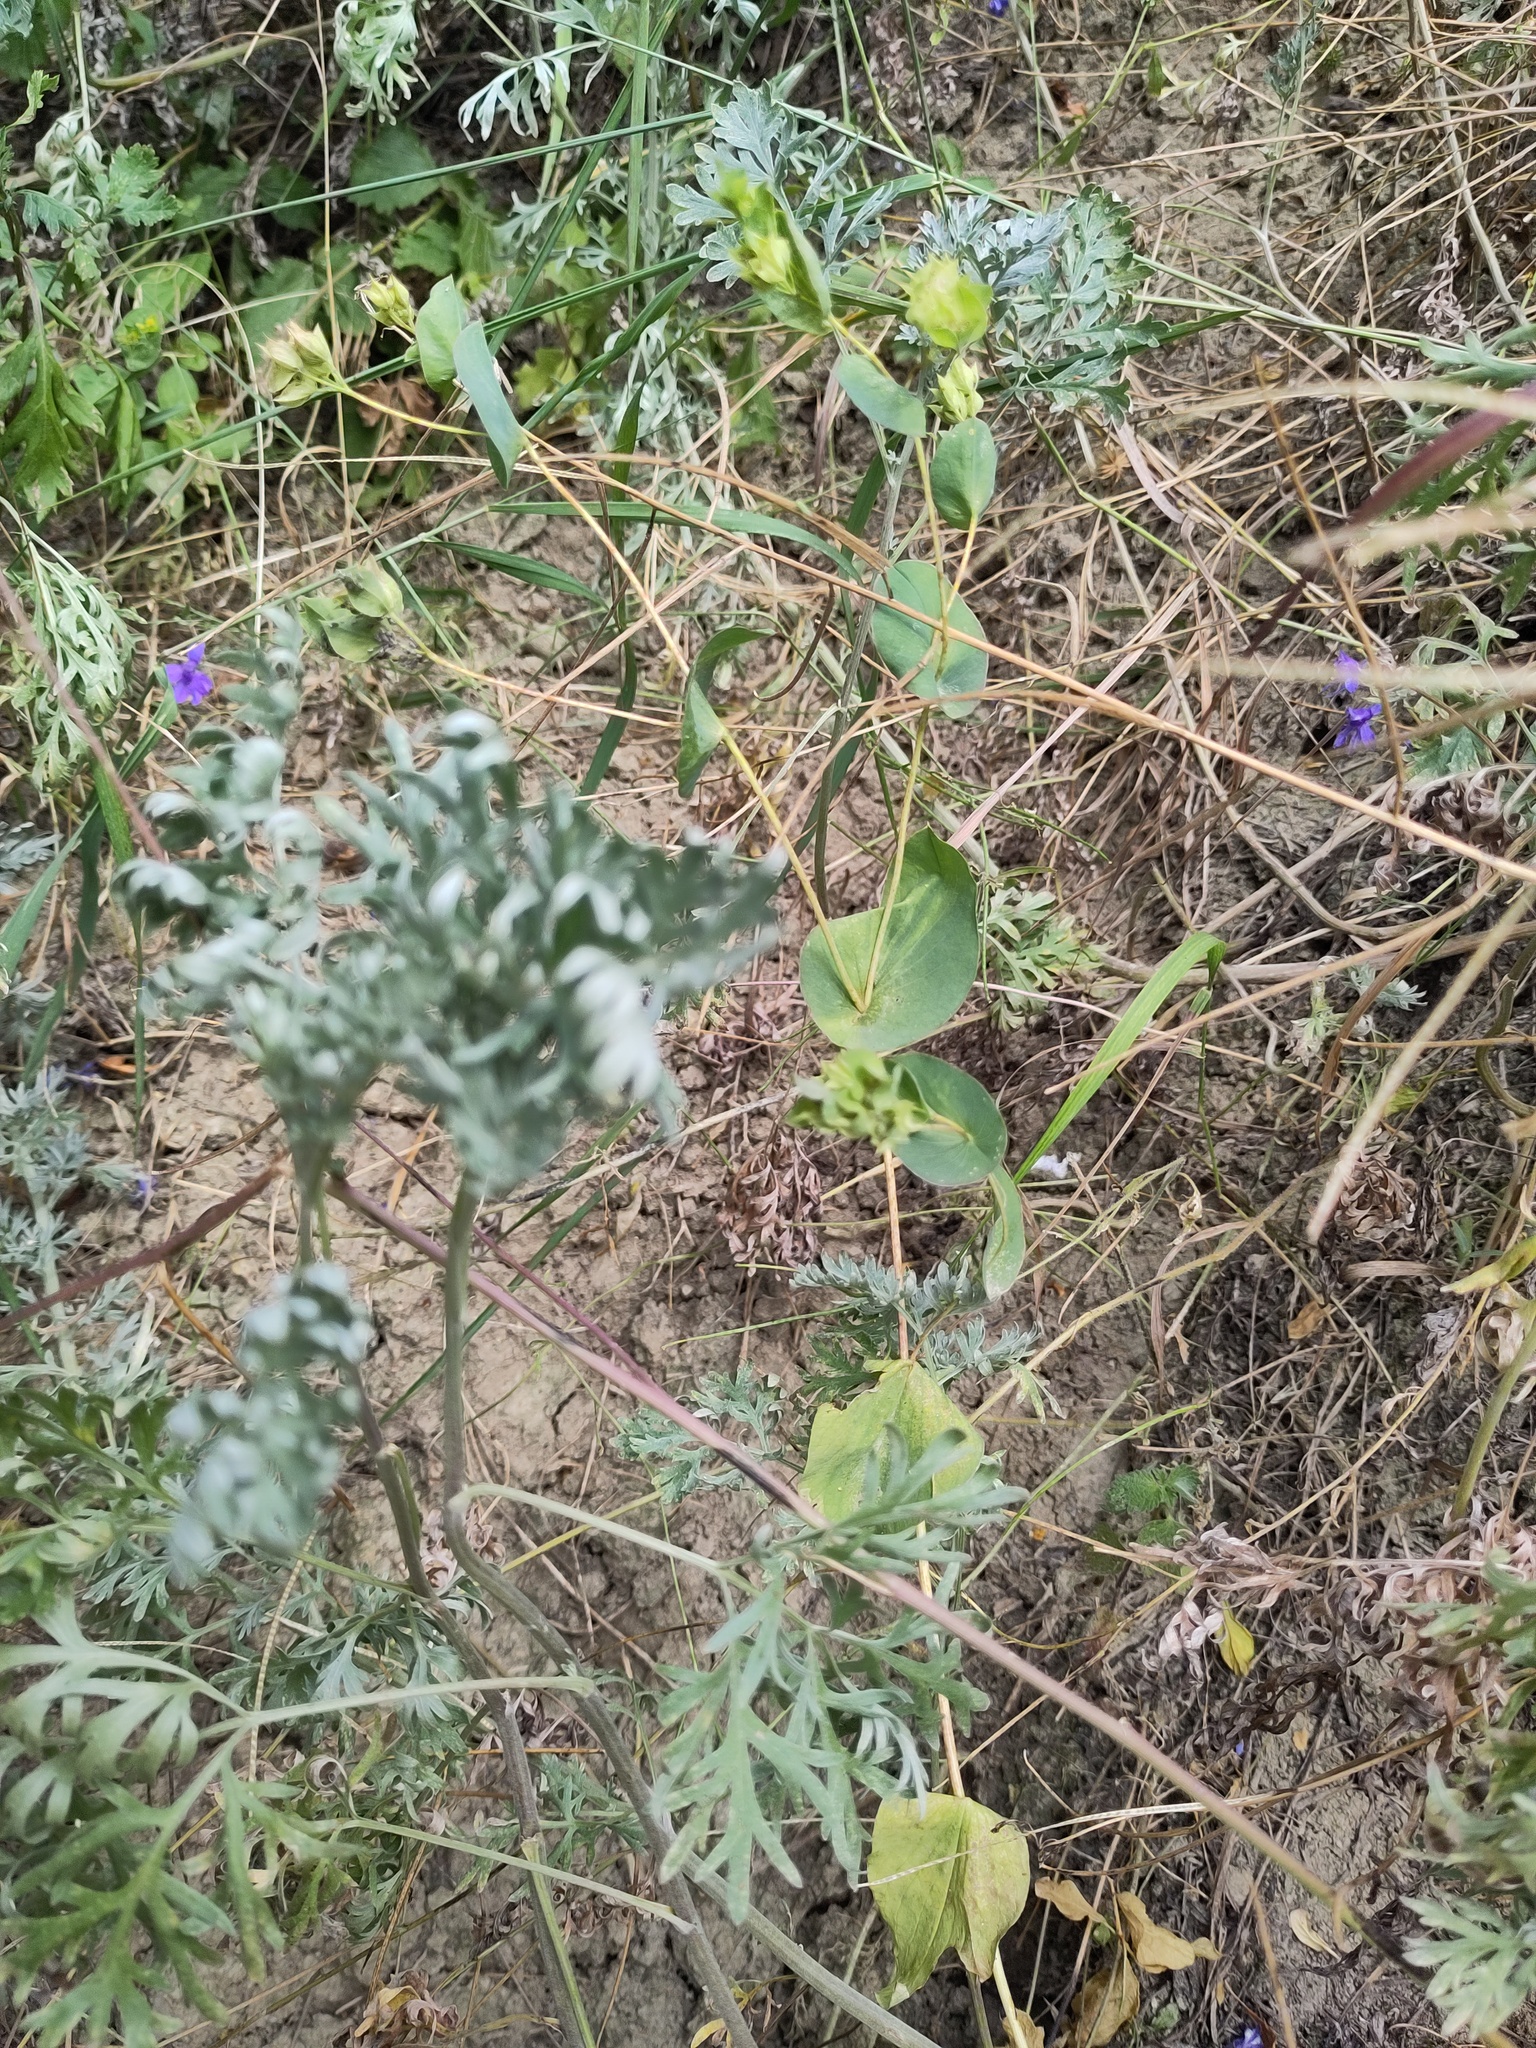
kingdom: Plantae
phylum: Tracheophyta
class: Magnoliopsida
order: Apiales
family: Apiaceae
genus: Bupleurum
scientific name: Bupleurum rotundifolium
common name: Thorow-wax
